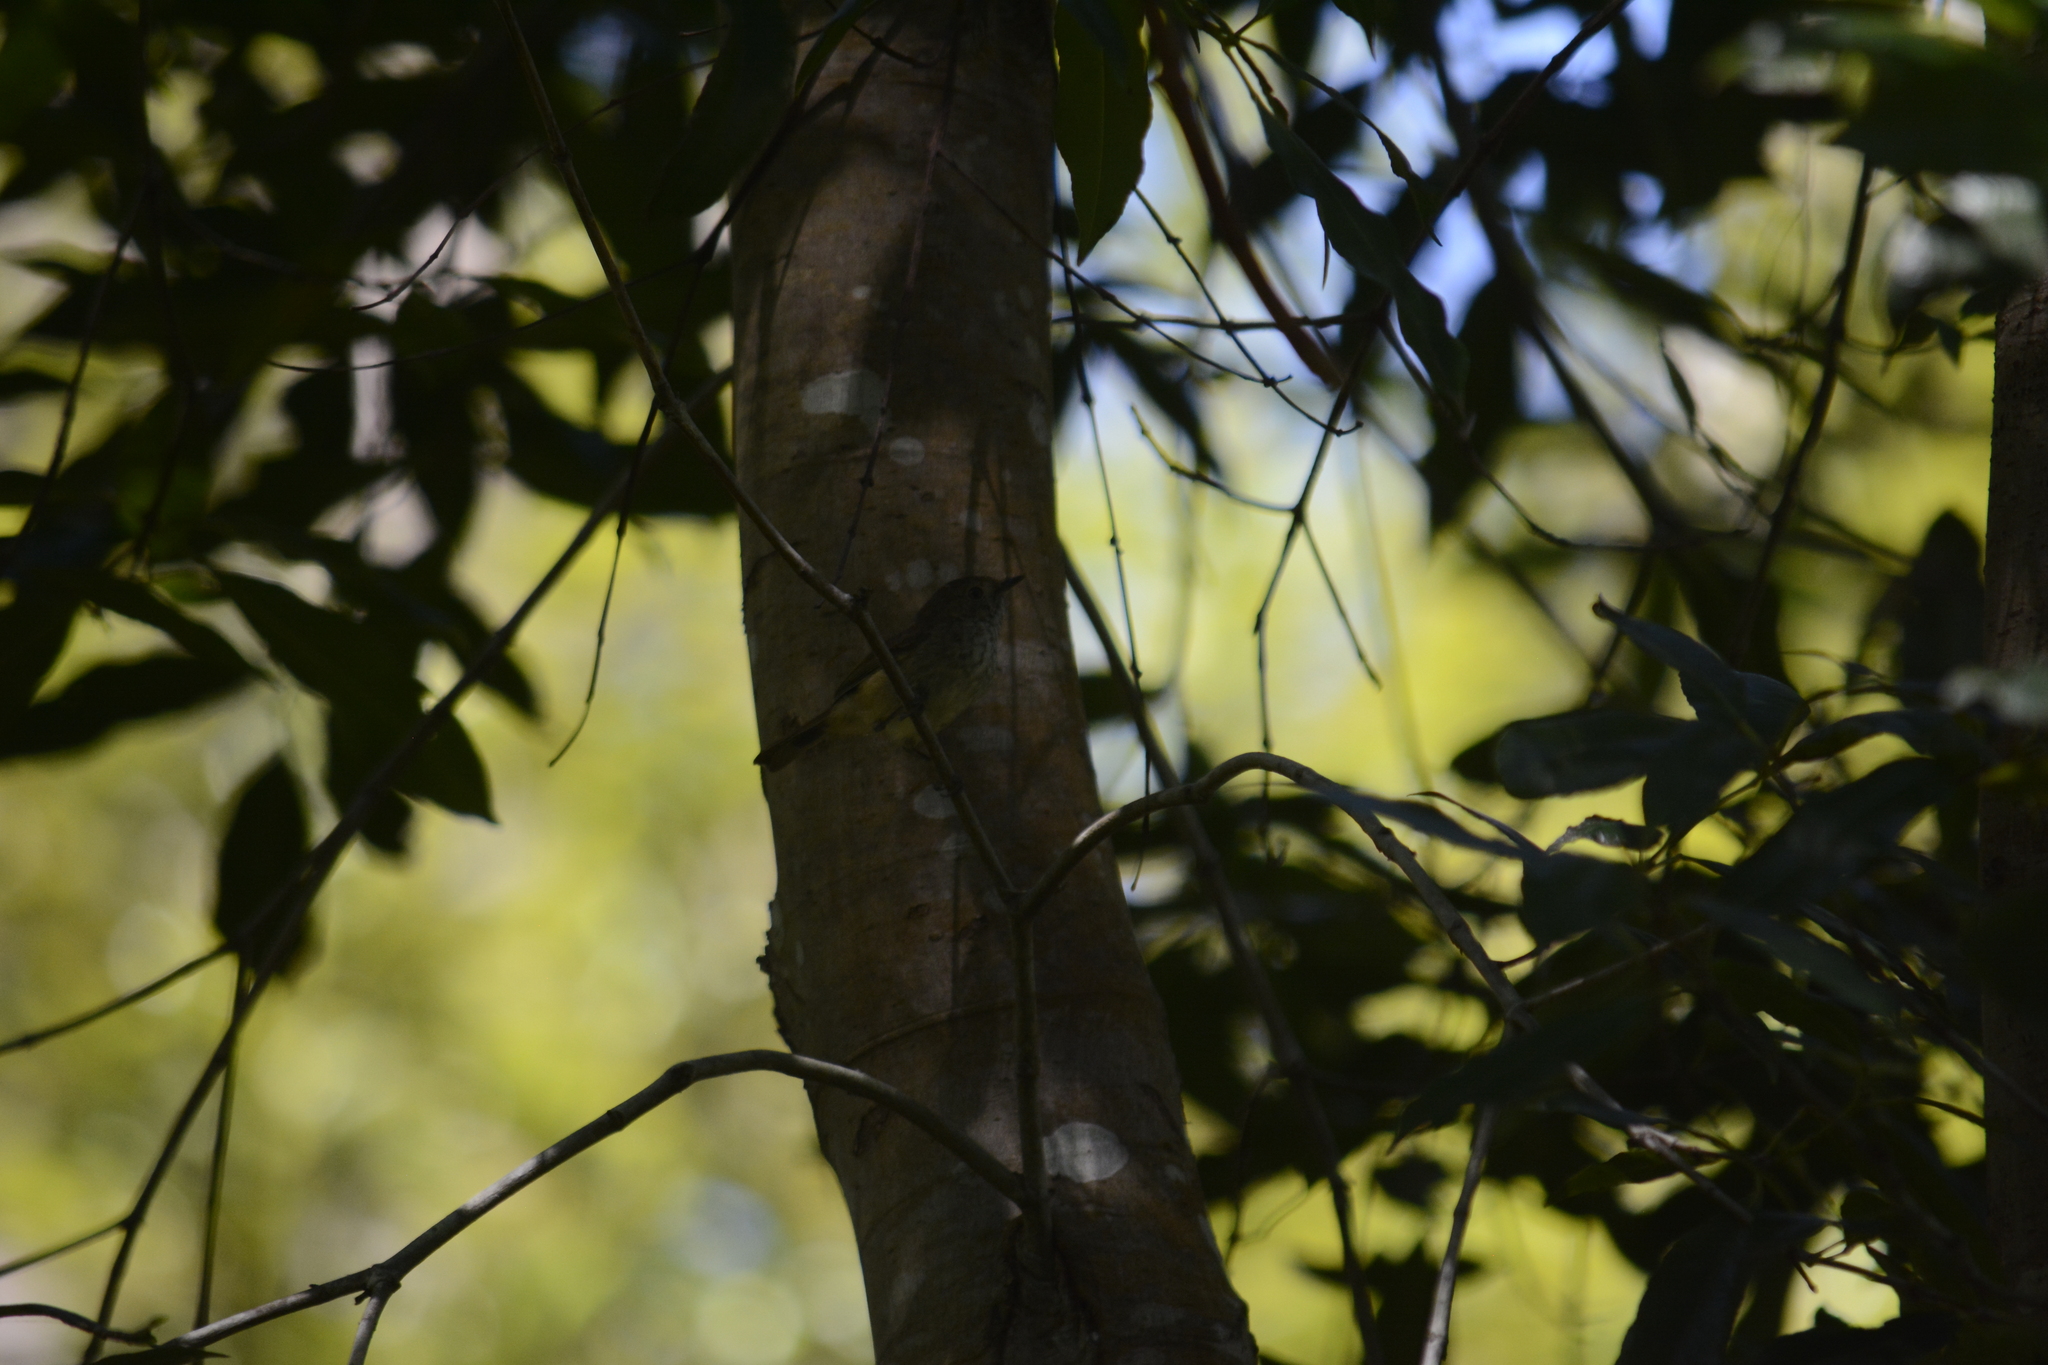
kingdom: Animalia
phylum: Chordata
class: Aves
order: Passeriformes
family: Acanthizidae
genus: Acanthiza
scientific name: Acanthiza pusilla
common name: Brown thornbill
